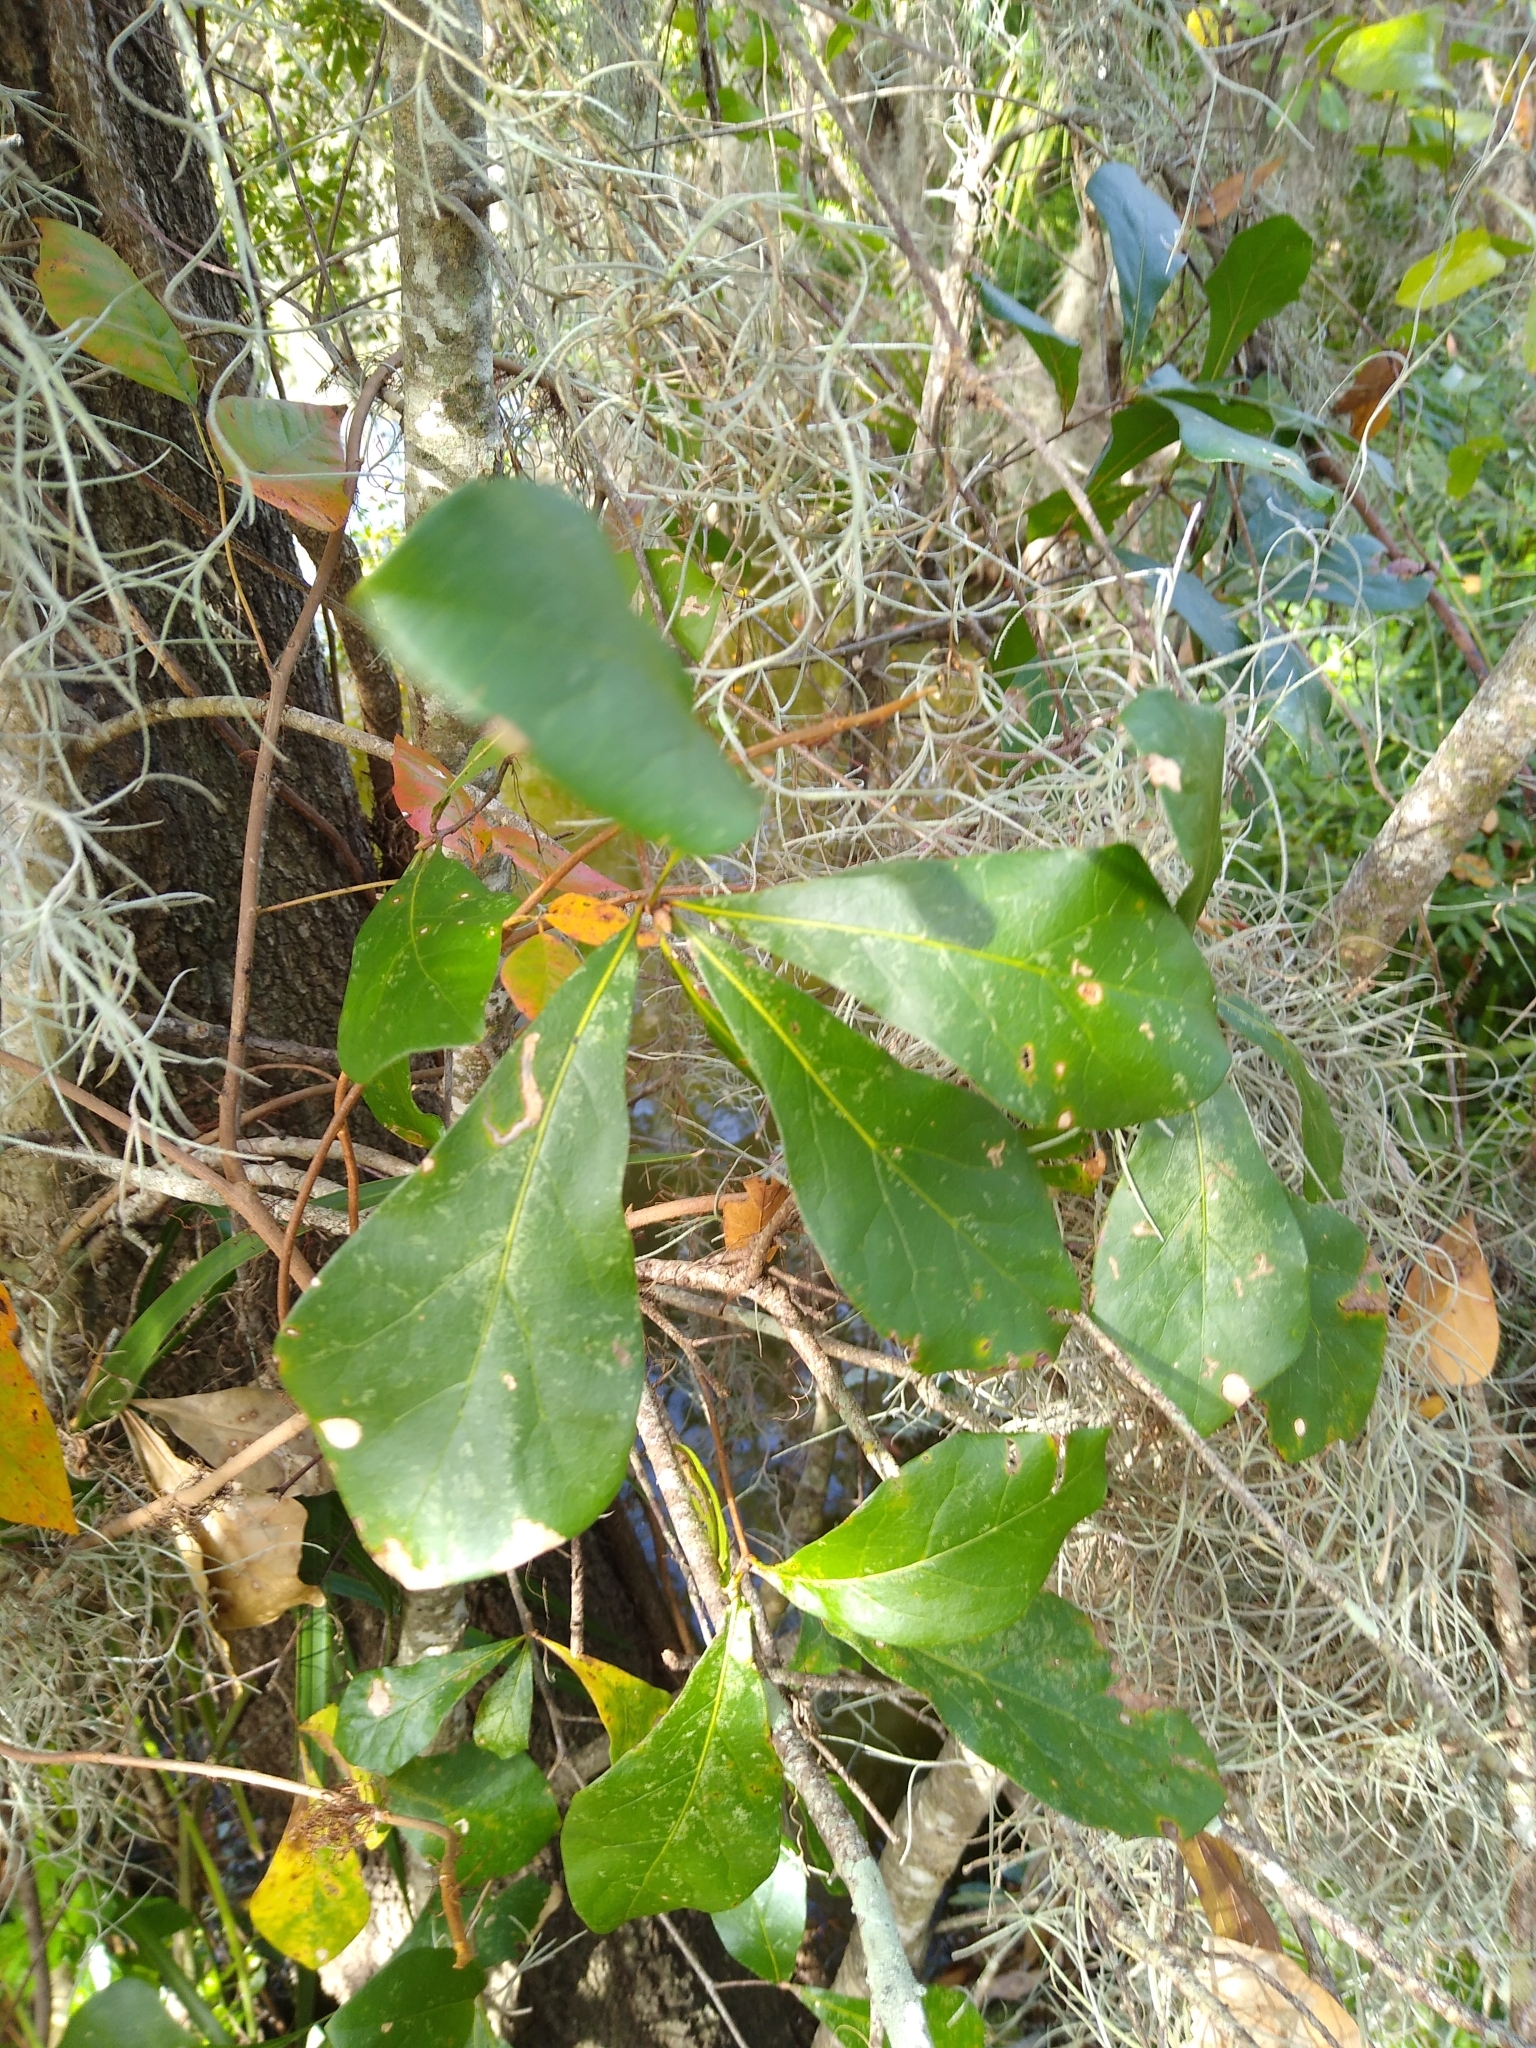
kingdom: Plantae
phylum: Tracheophyta
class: Magnoliopsida
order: Fagales
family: Fagaceae
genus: Quercus
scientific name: Quercus nigra
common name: Water oak
